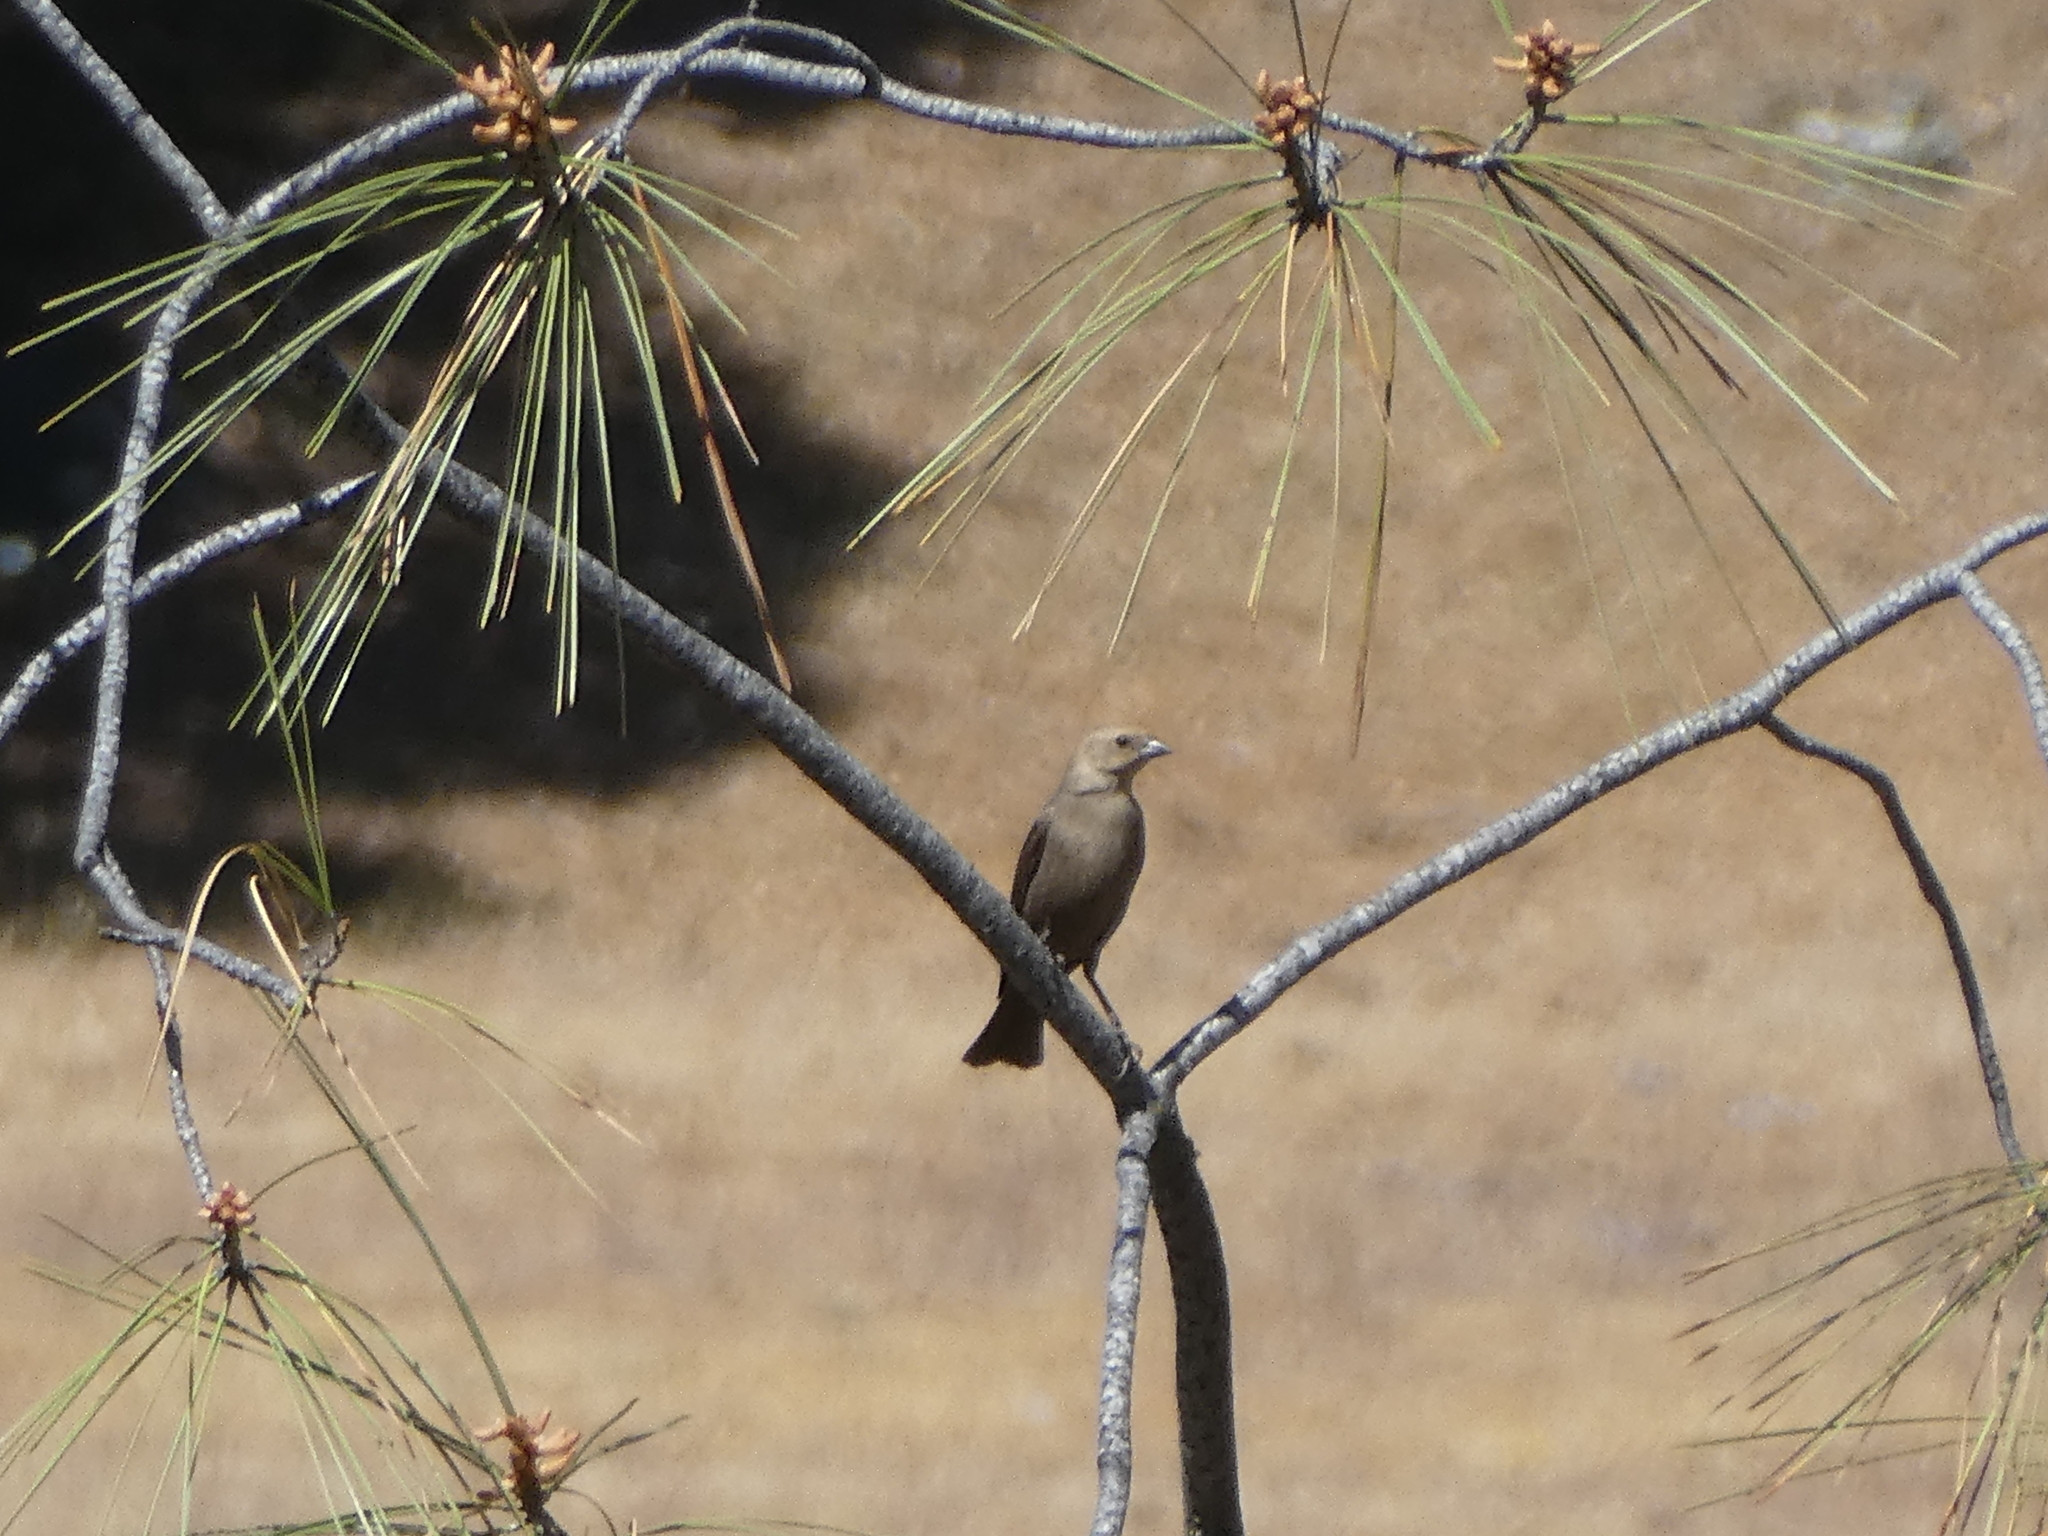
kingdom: Animalia
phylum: Chordata
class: Aves
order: Passeriformes
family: Icteridae
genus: Euphagus
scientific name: Euphagus cyanocephalus
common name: Brewer's blackbird
